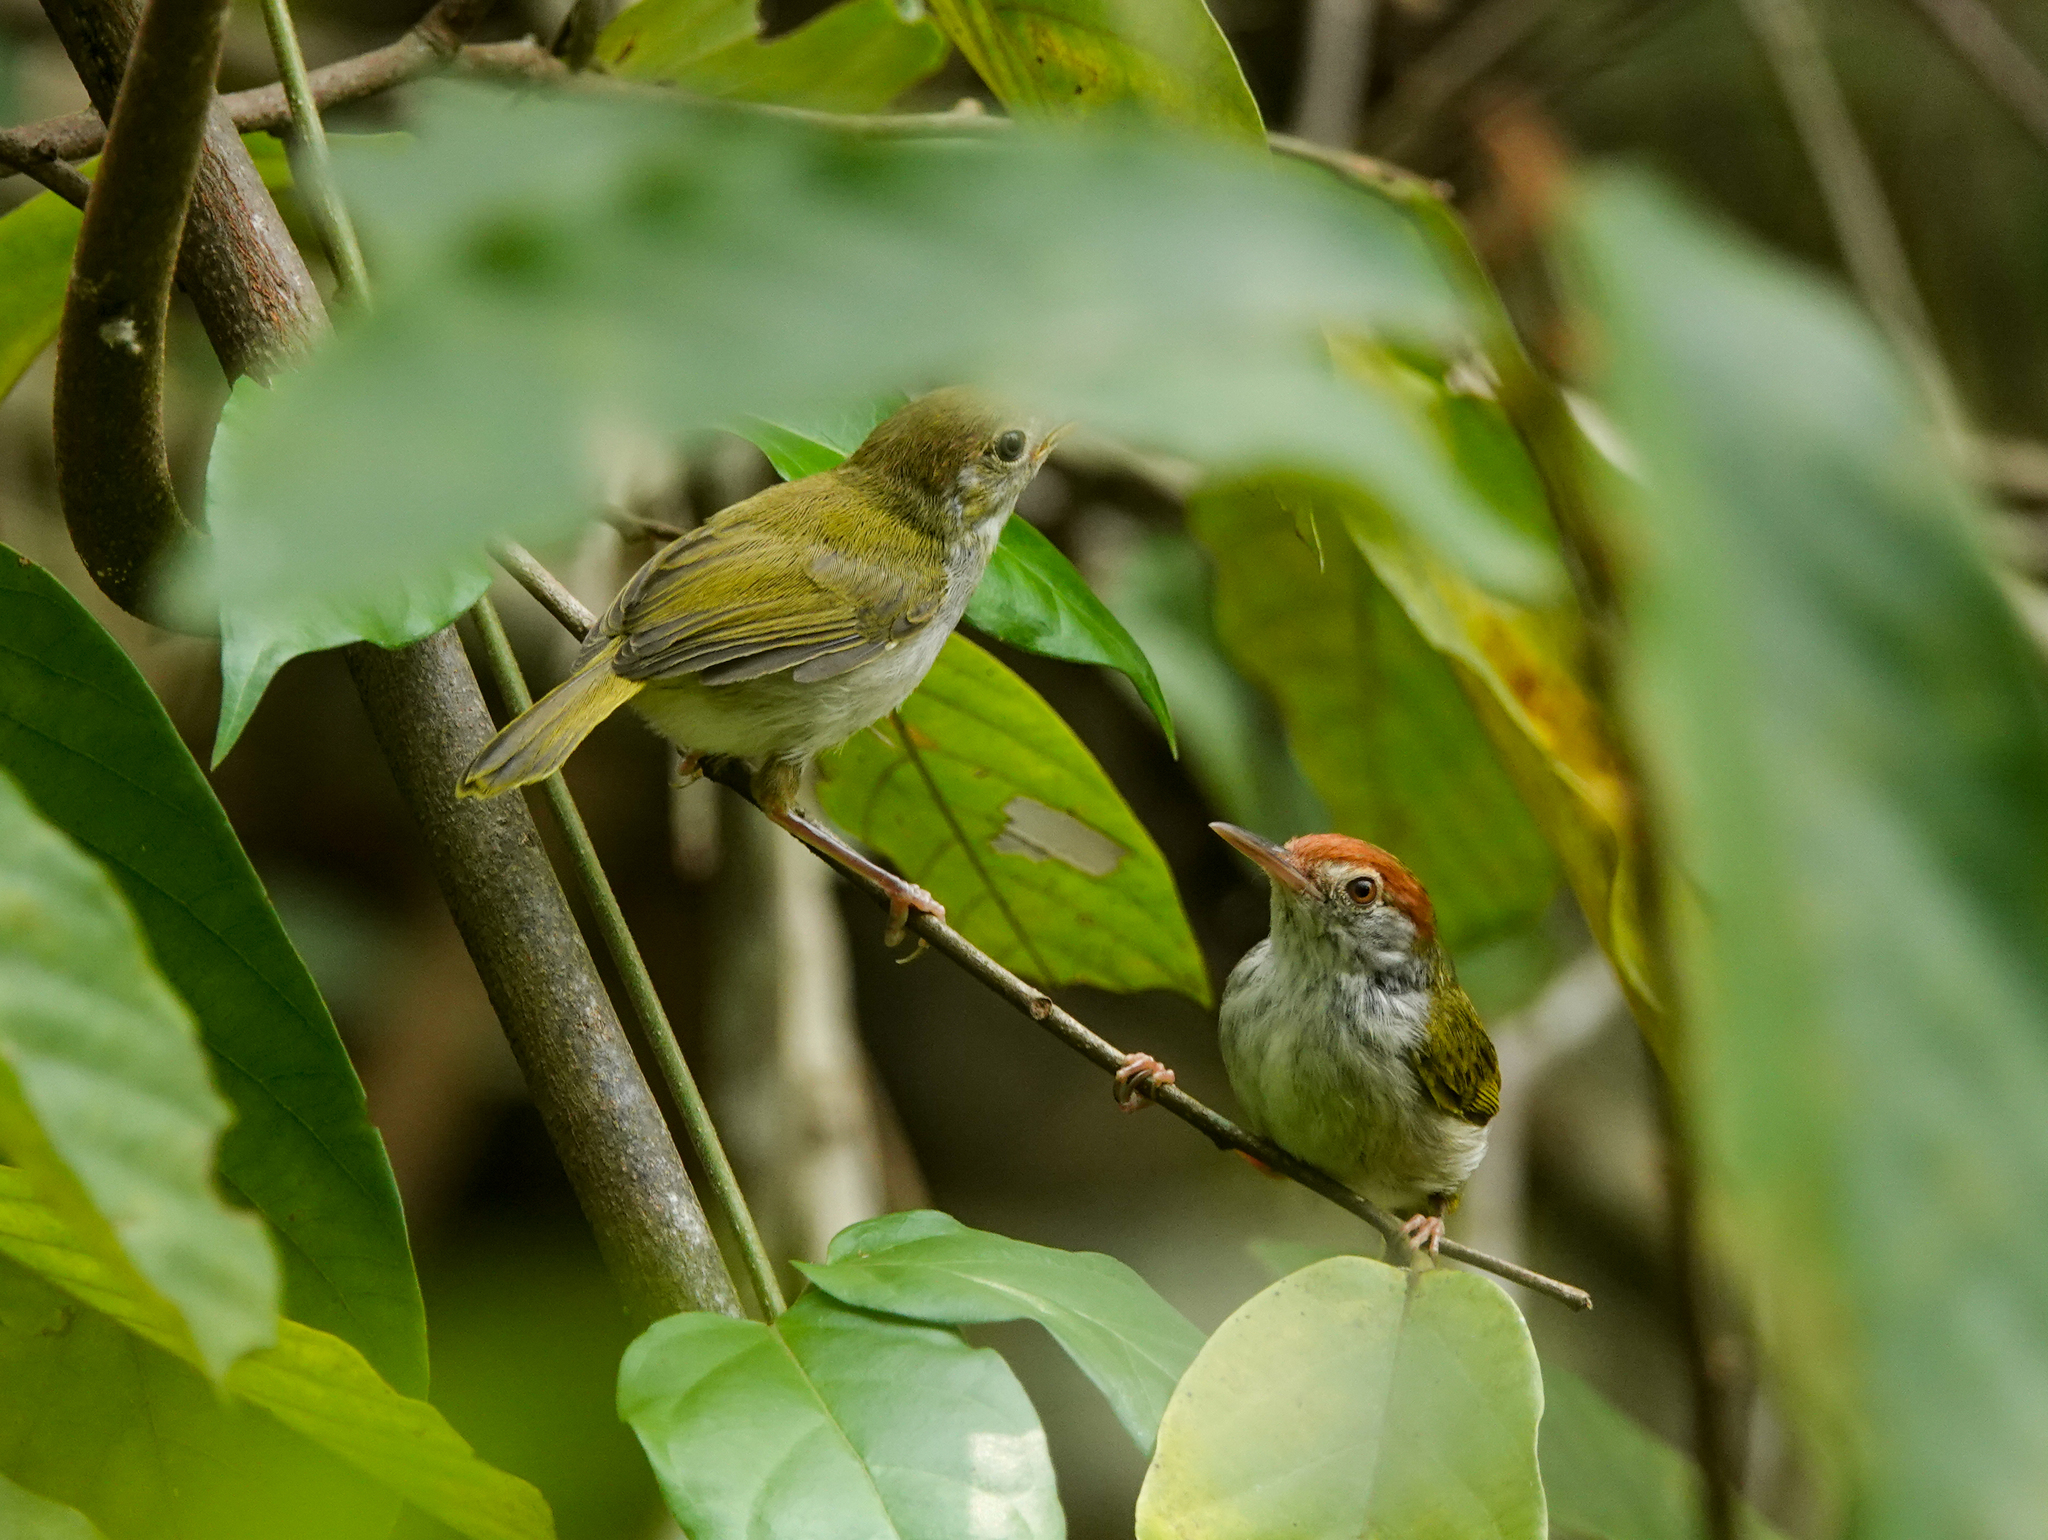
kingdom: Animalia
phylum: Chordata
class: Aves
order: Passeriformes
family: Cisticolidae
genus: Orthotomus
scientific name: Orthotomus atrogularis
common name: Dark-necked tailorbird
